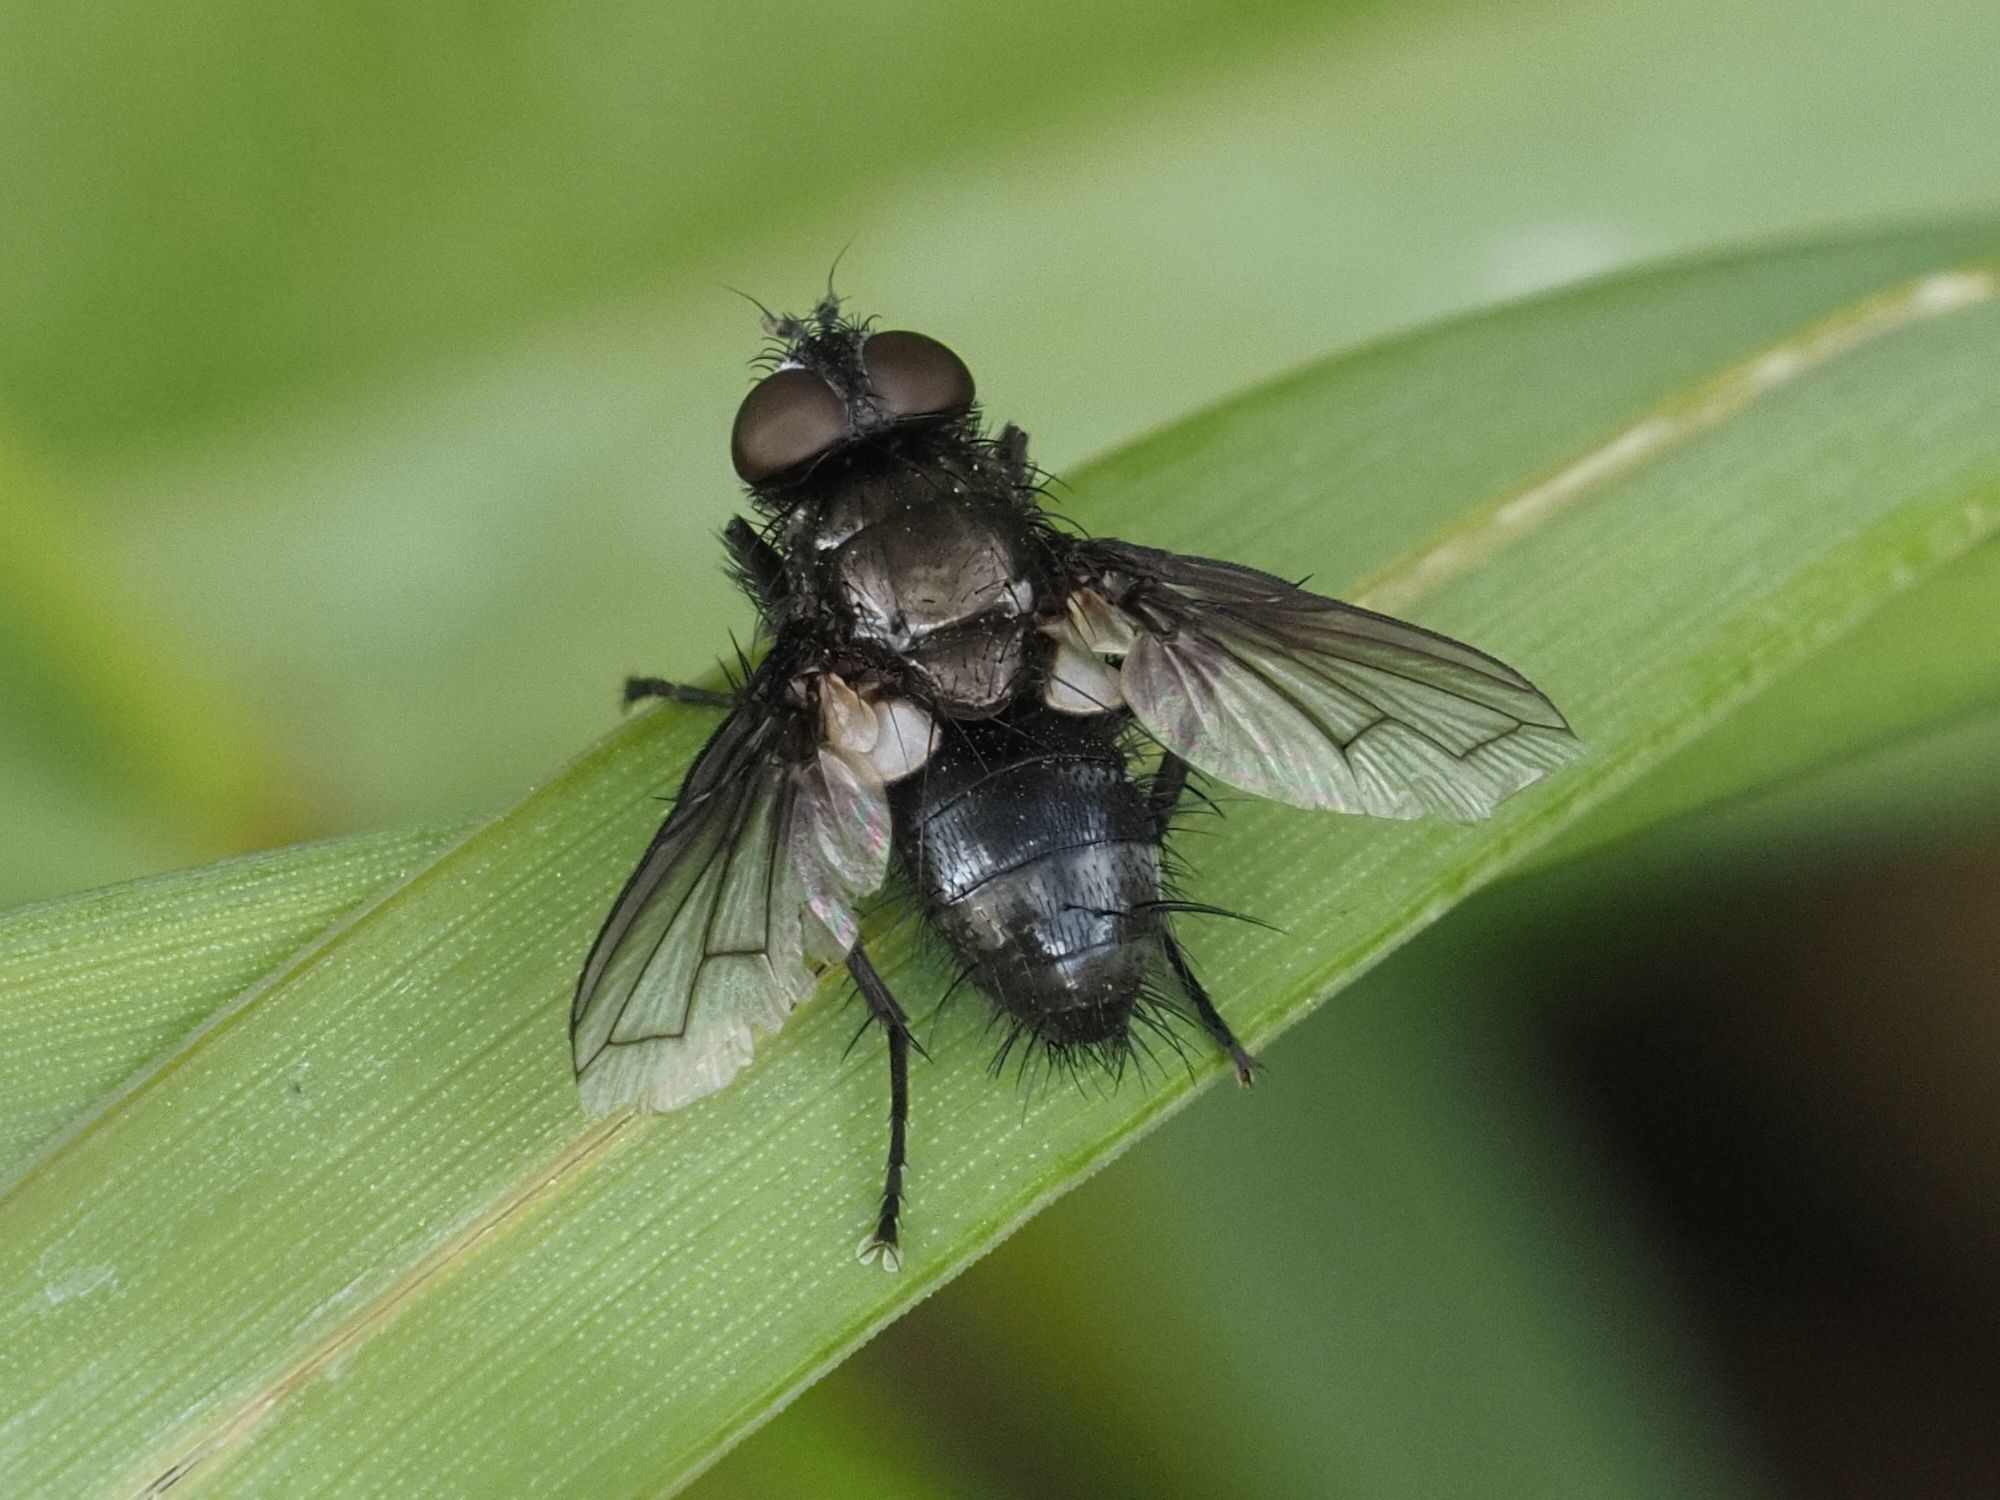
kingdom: Animalia
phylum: Arthropoda
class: Insecta
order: Diptera
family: Tachinidae
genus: Kirbya
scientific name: Kirbya moerens
